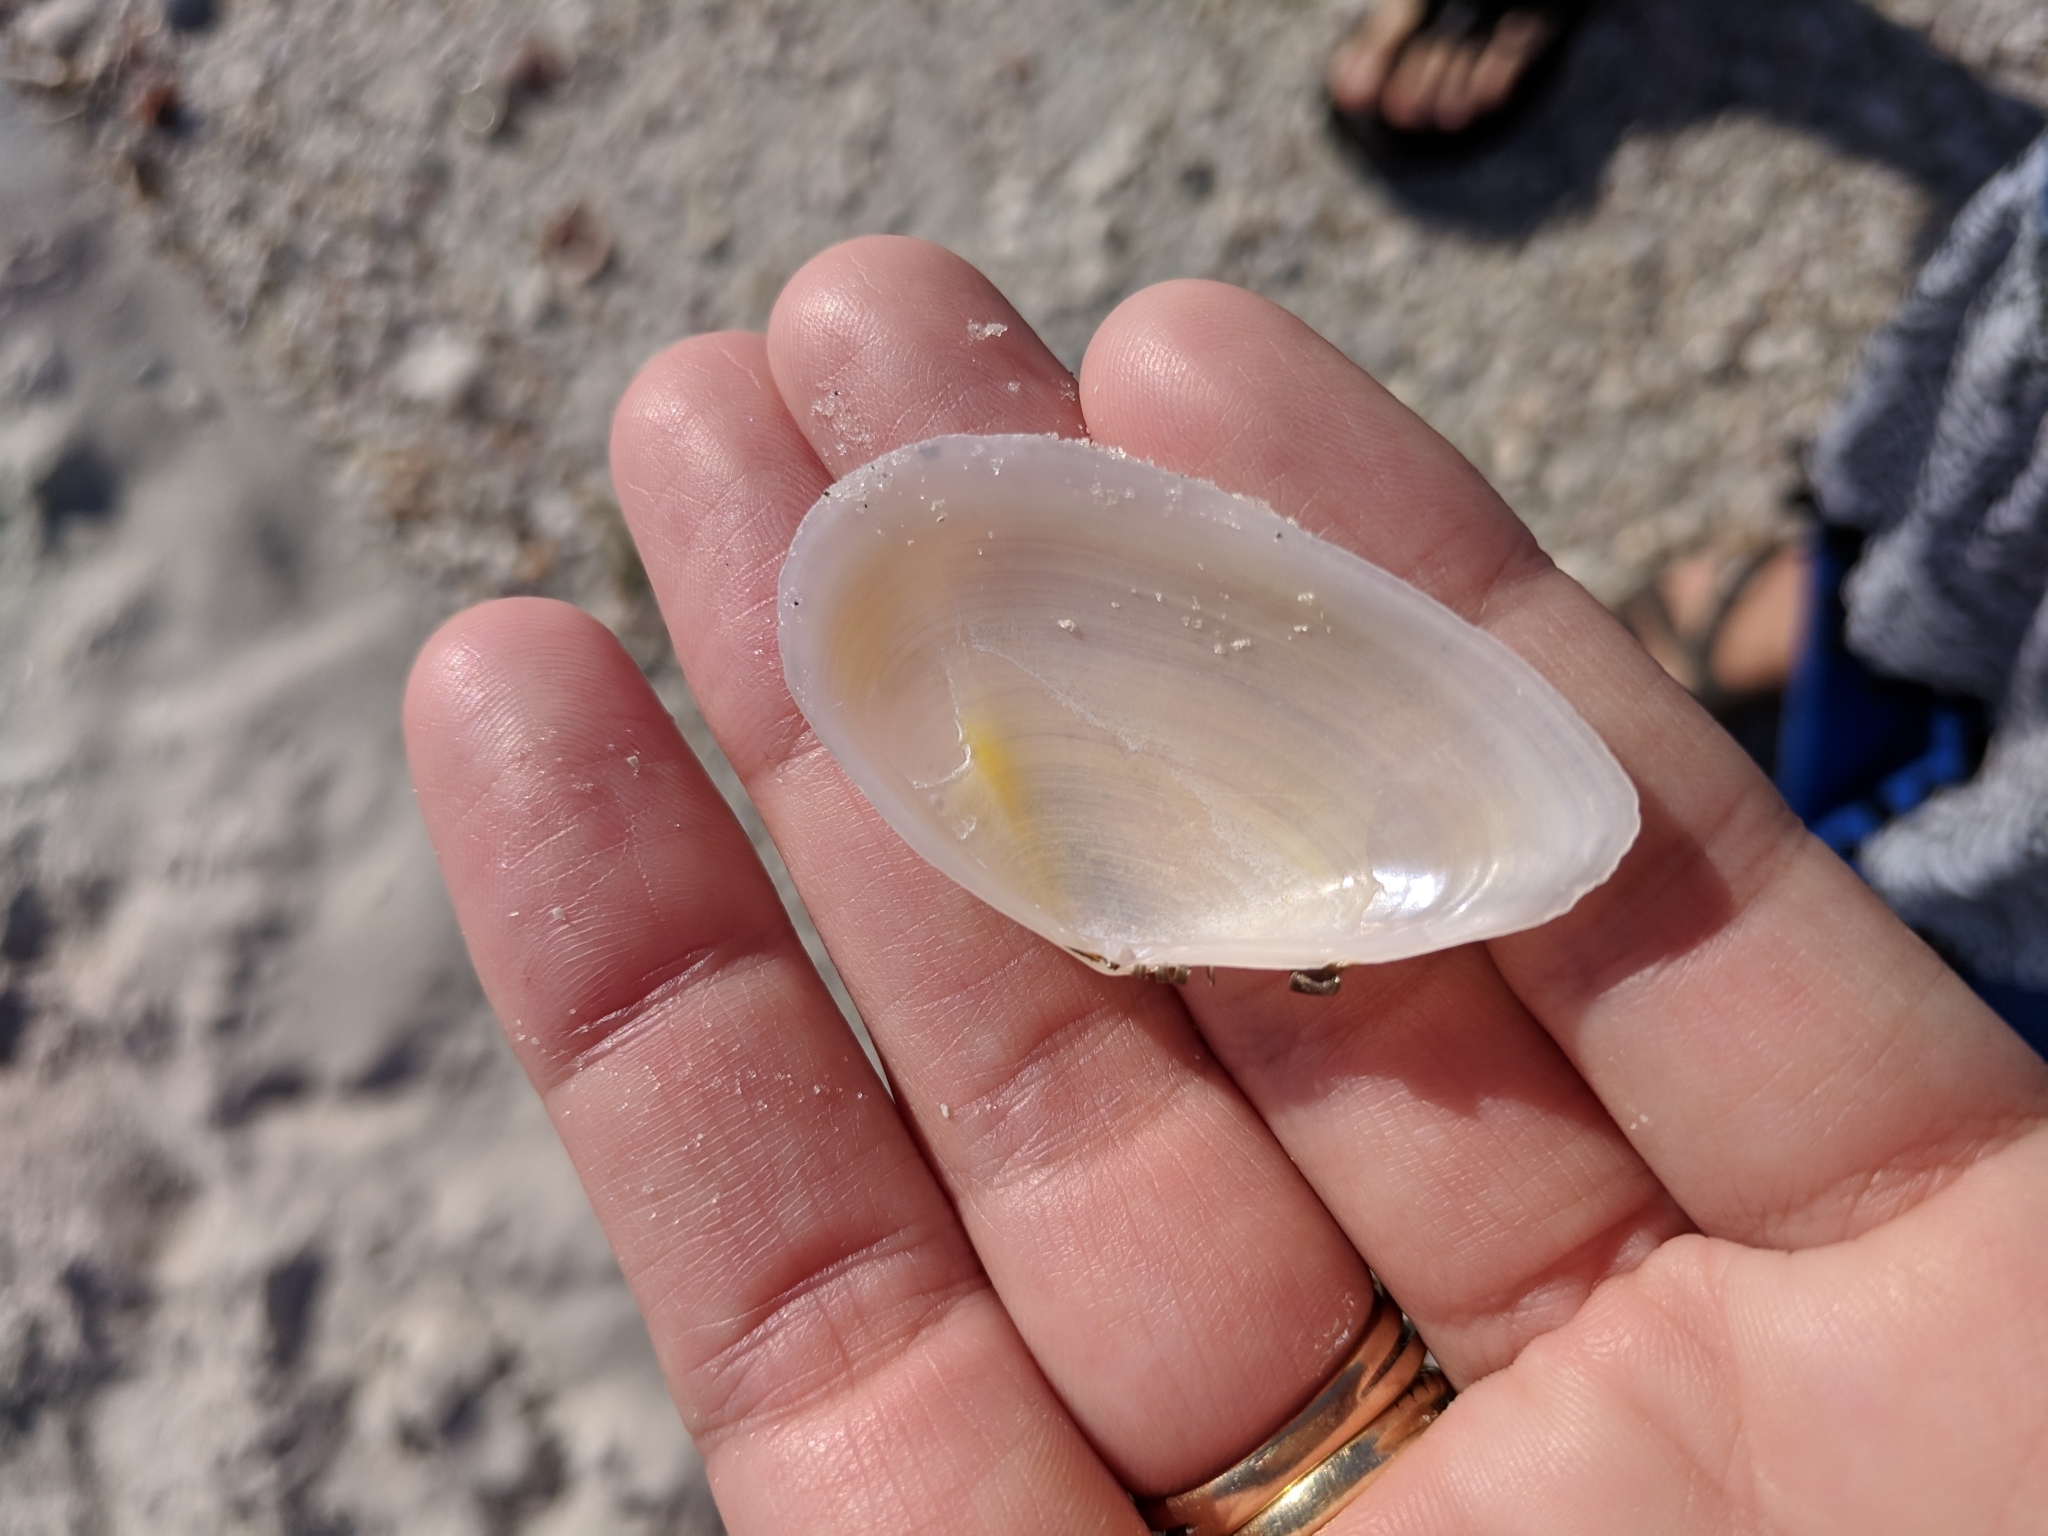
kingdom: Animalia
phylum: Mollusca
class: Bivalvia
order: Cardiida
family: Tellinidae
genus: Eurytellina
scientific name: Eurytellina alternata
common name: Alternate tellin
